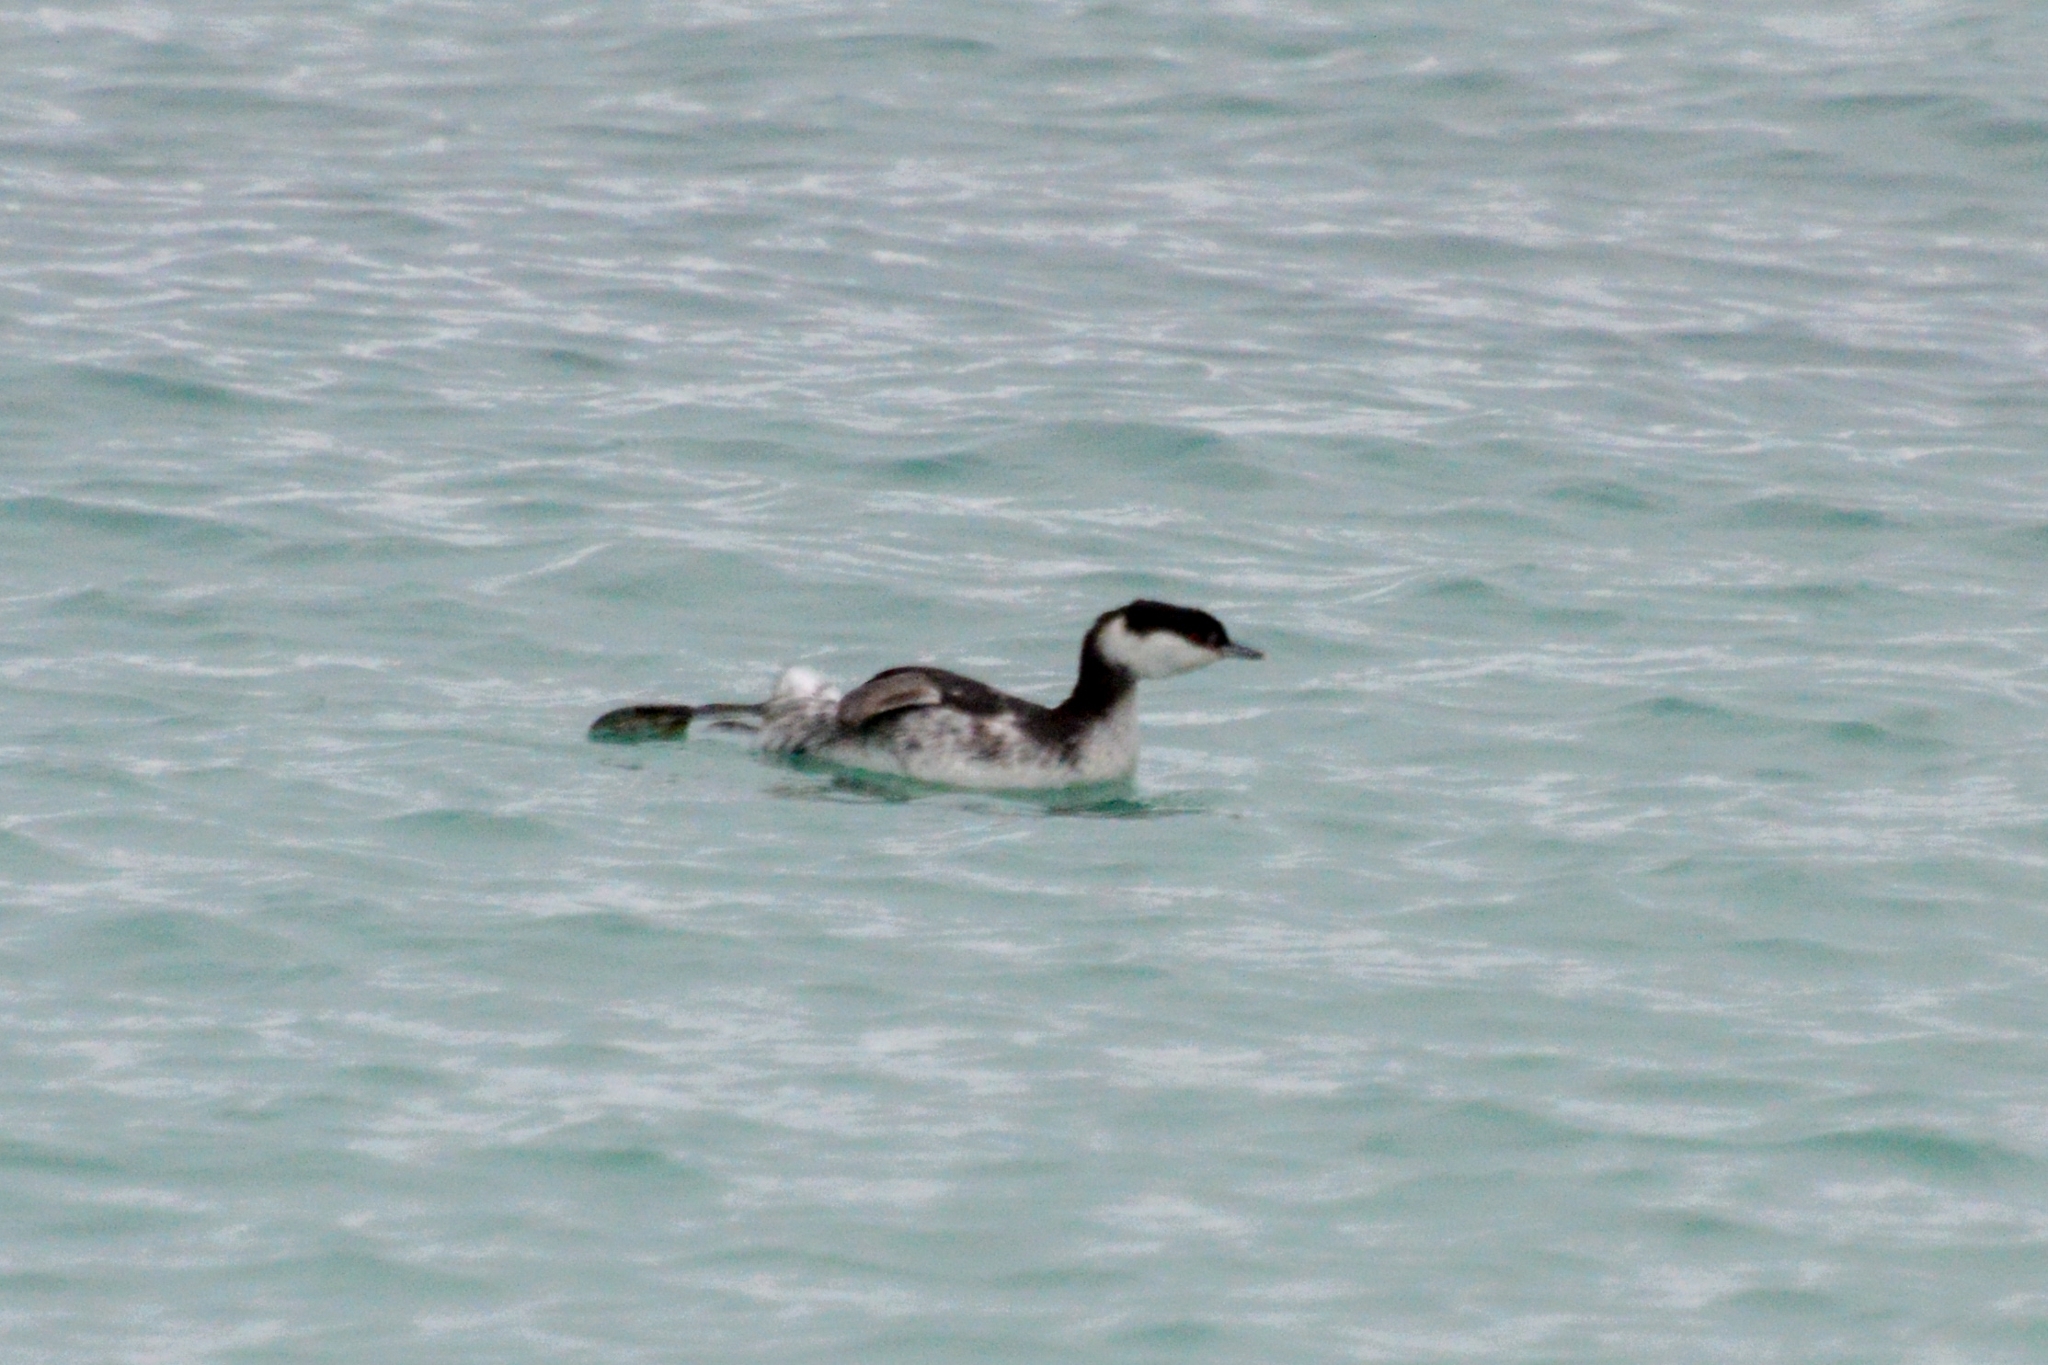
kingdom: Animalia
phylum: Chordata
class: Aves
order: Podicipediformes
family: Podicipedidae
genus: Podiceps
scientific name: Podiceps auritus
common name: Horned grebe
